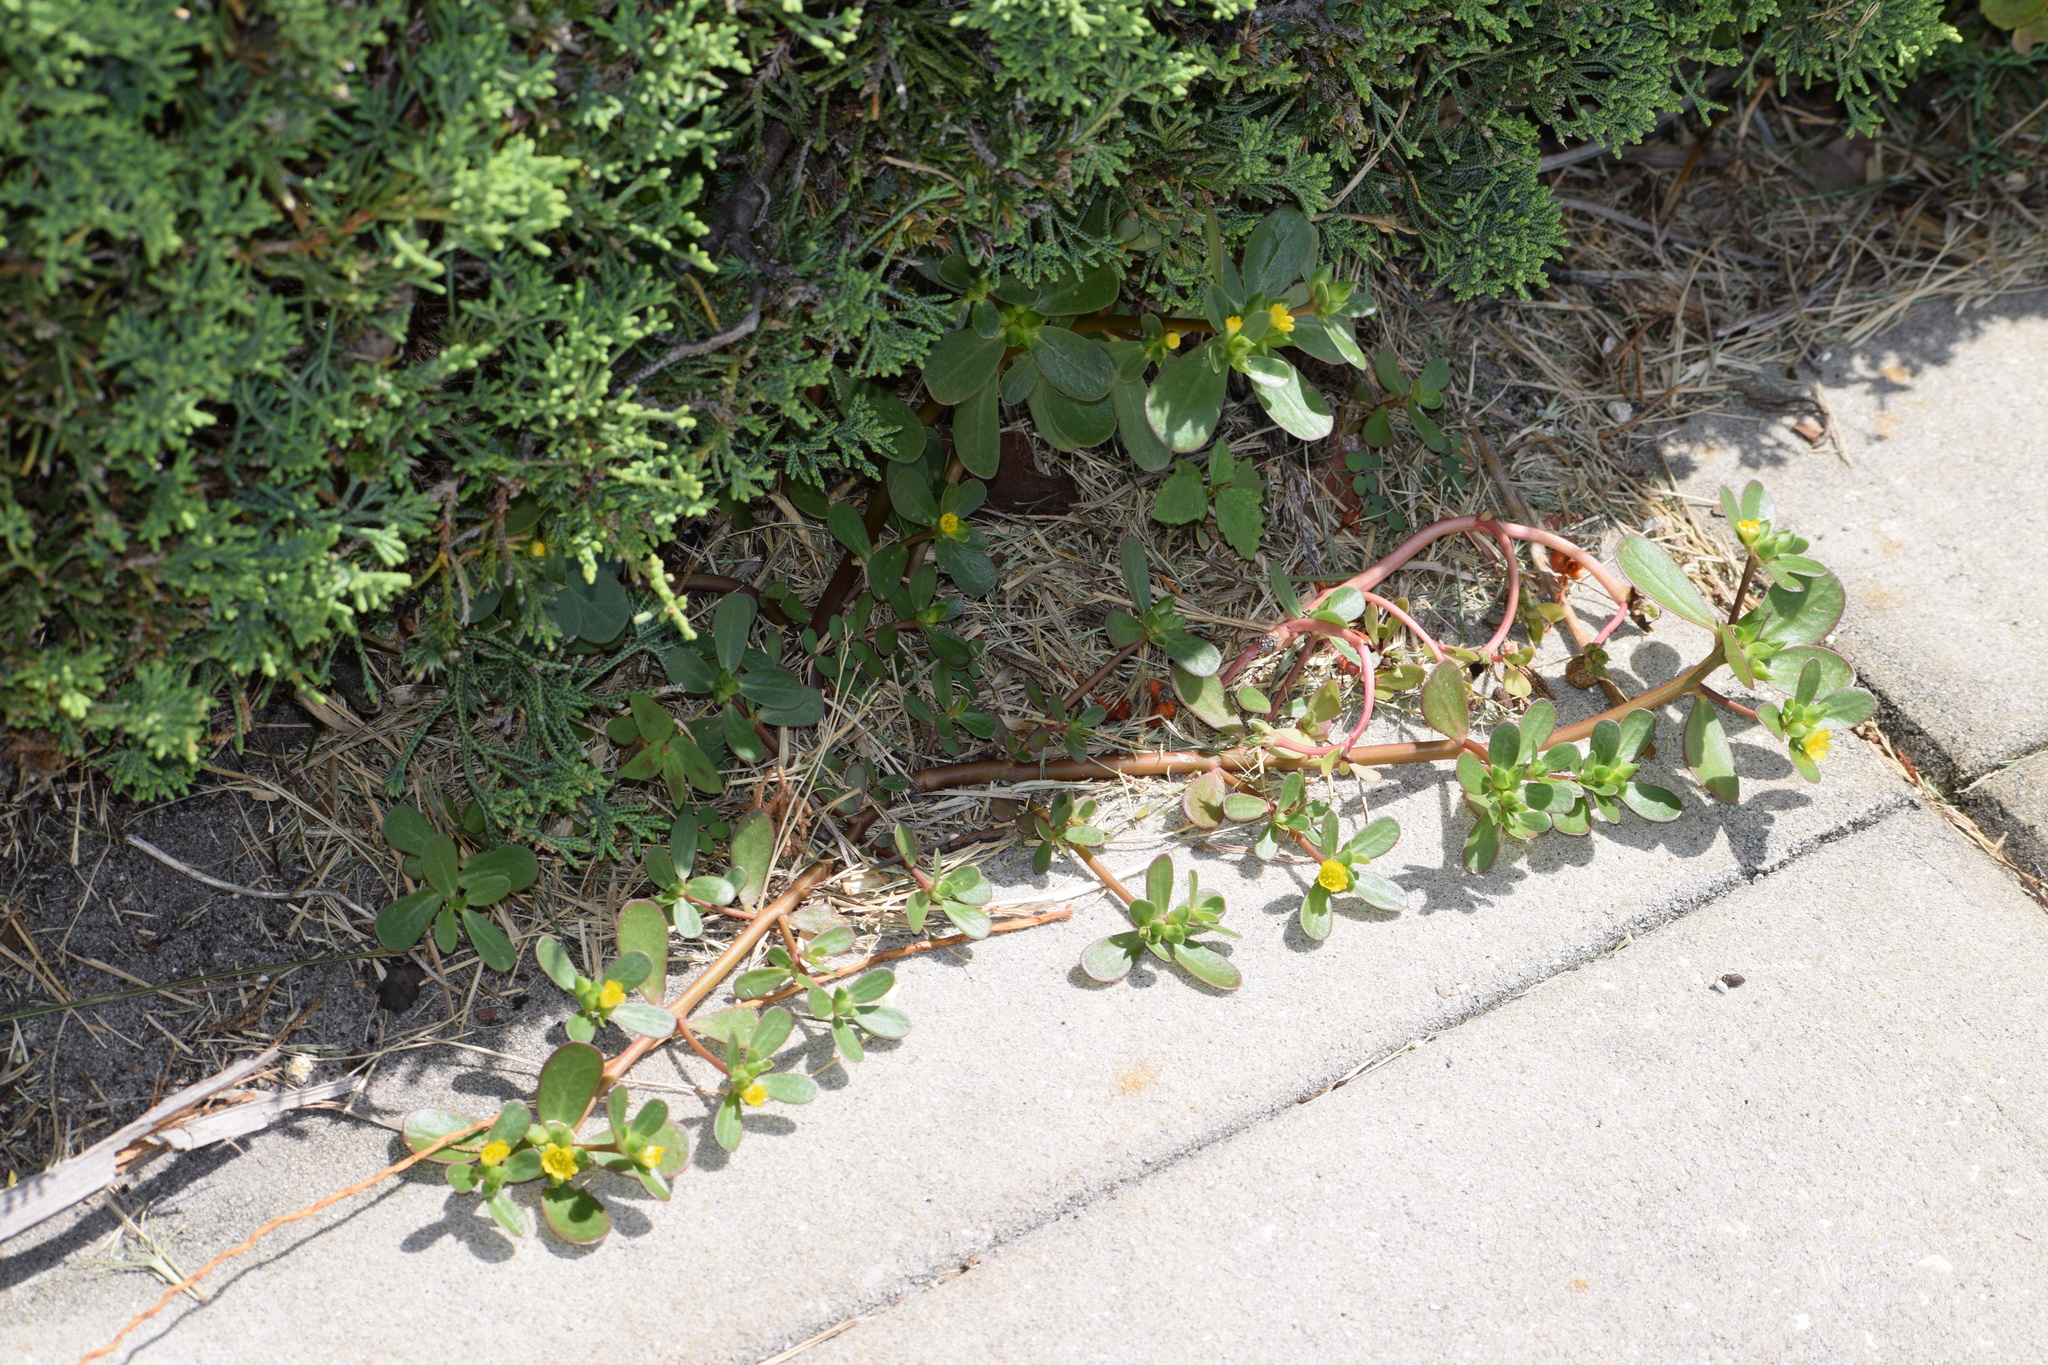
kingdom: Plantae
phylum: Tracheophyta
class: Magnoliopsida
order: Caryophyllales
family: Portulacaceae
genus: Portulaca
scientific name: Portulaca oleracea
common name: Common purslane
